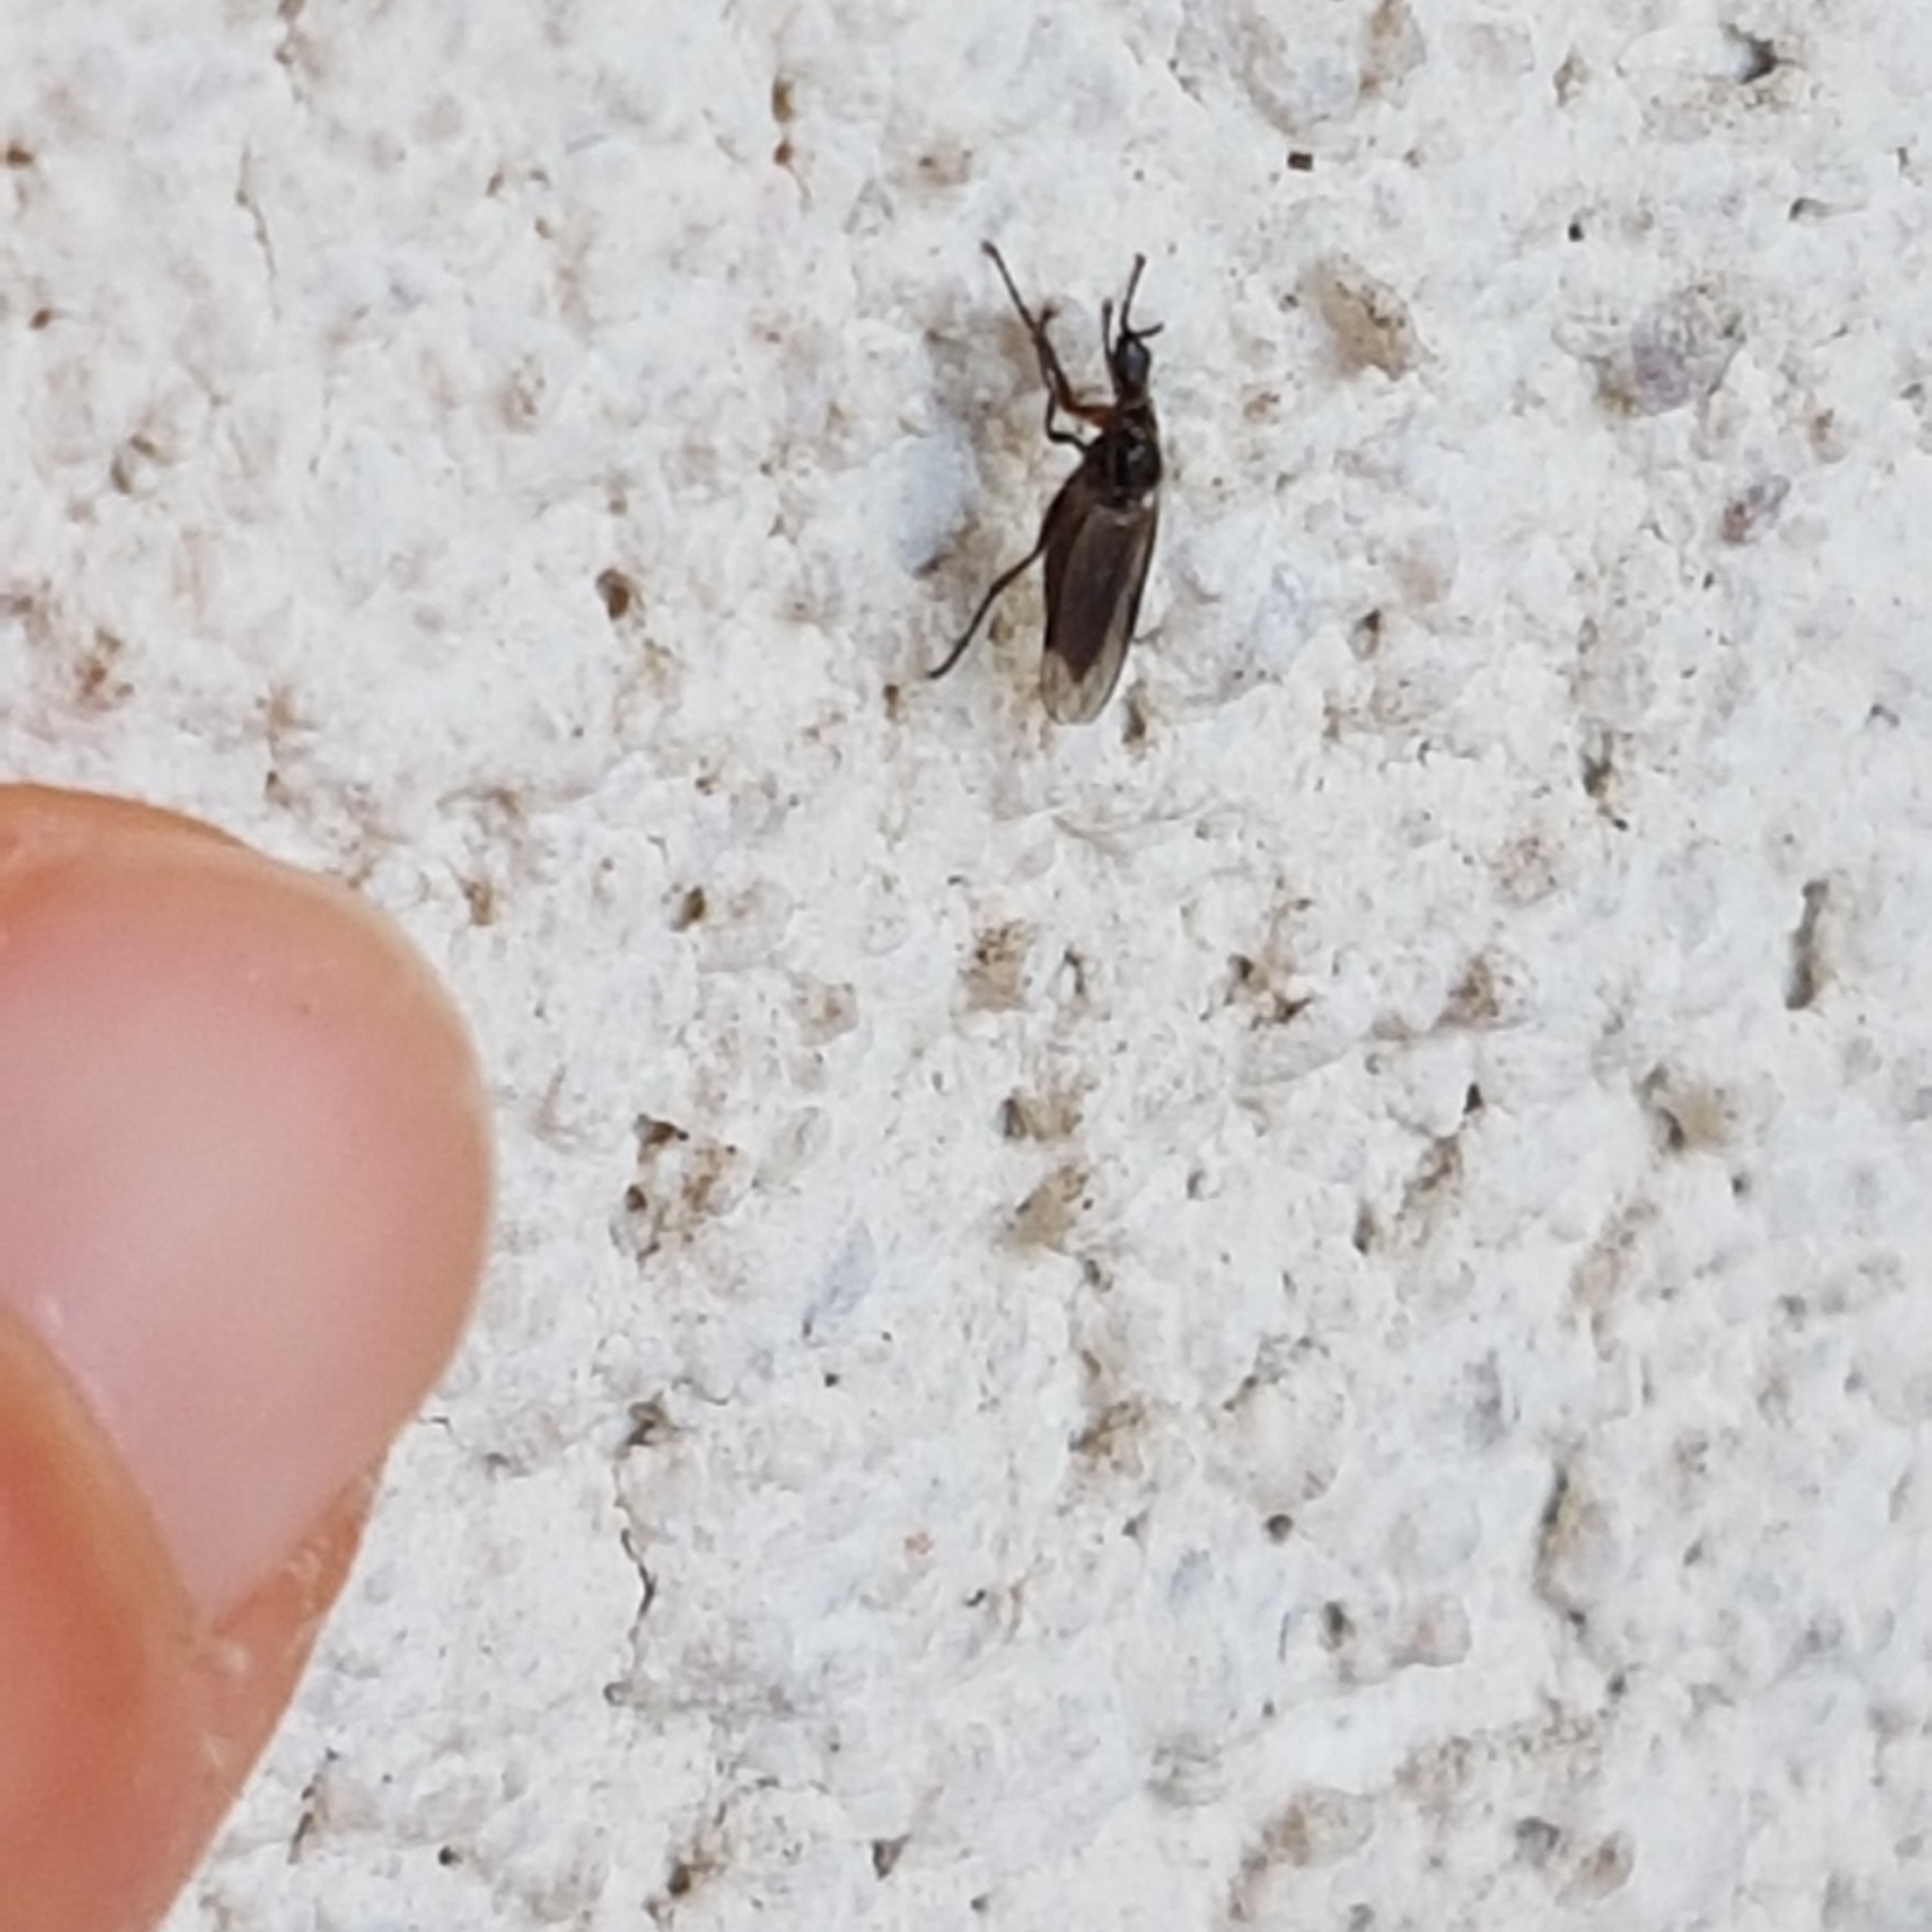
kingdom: Animalia
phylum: Arthropoda
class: Insecta
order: Diptera
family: Bibionidae
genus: Dilophus
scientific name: Dilophus antipedalis
